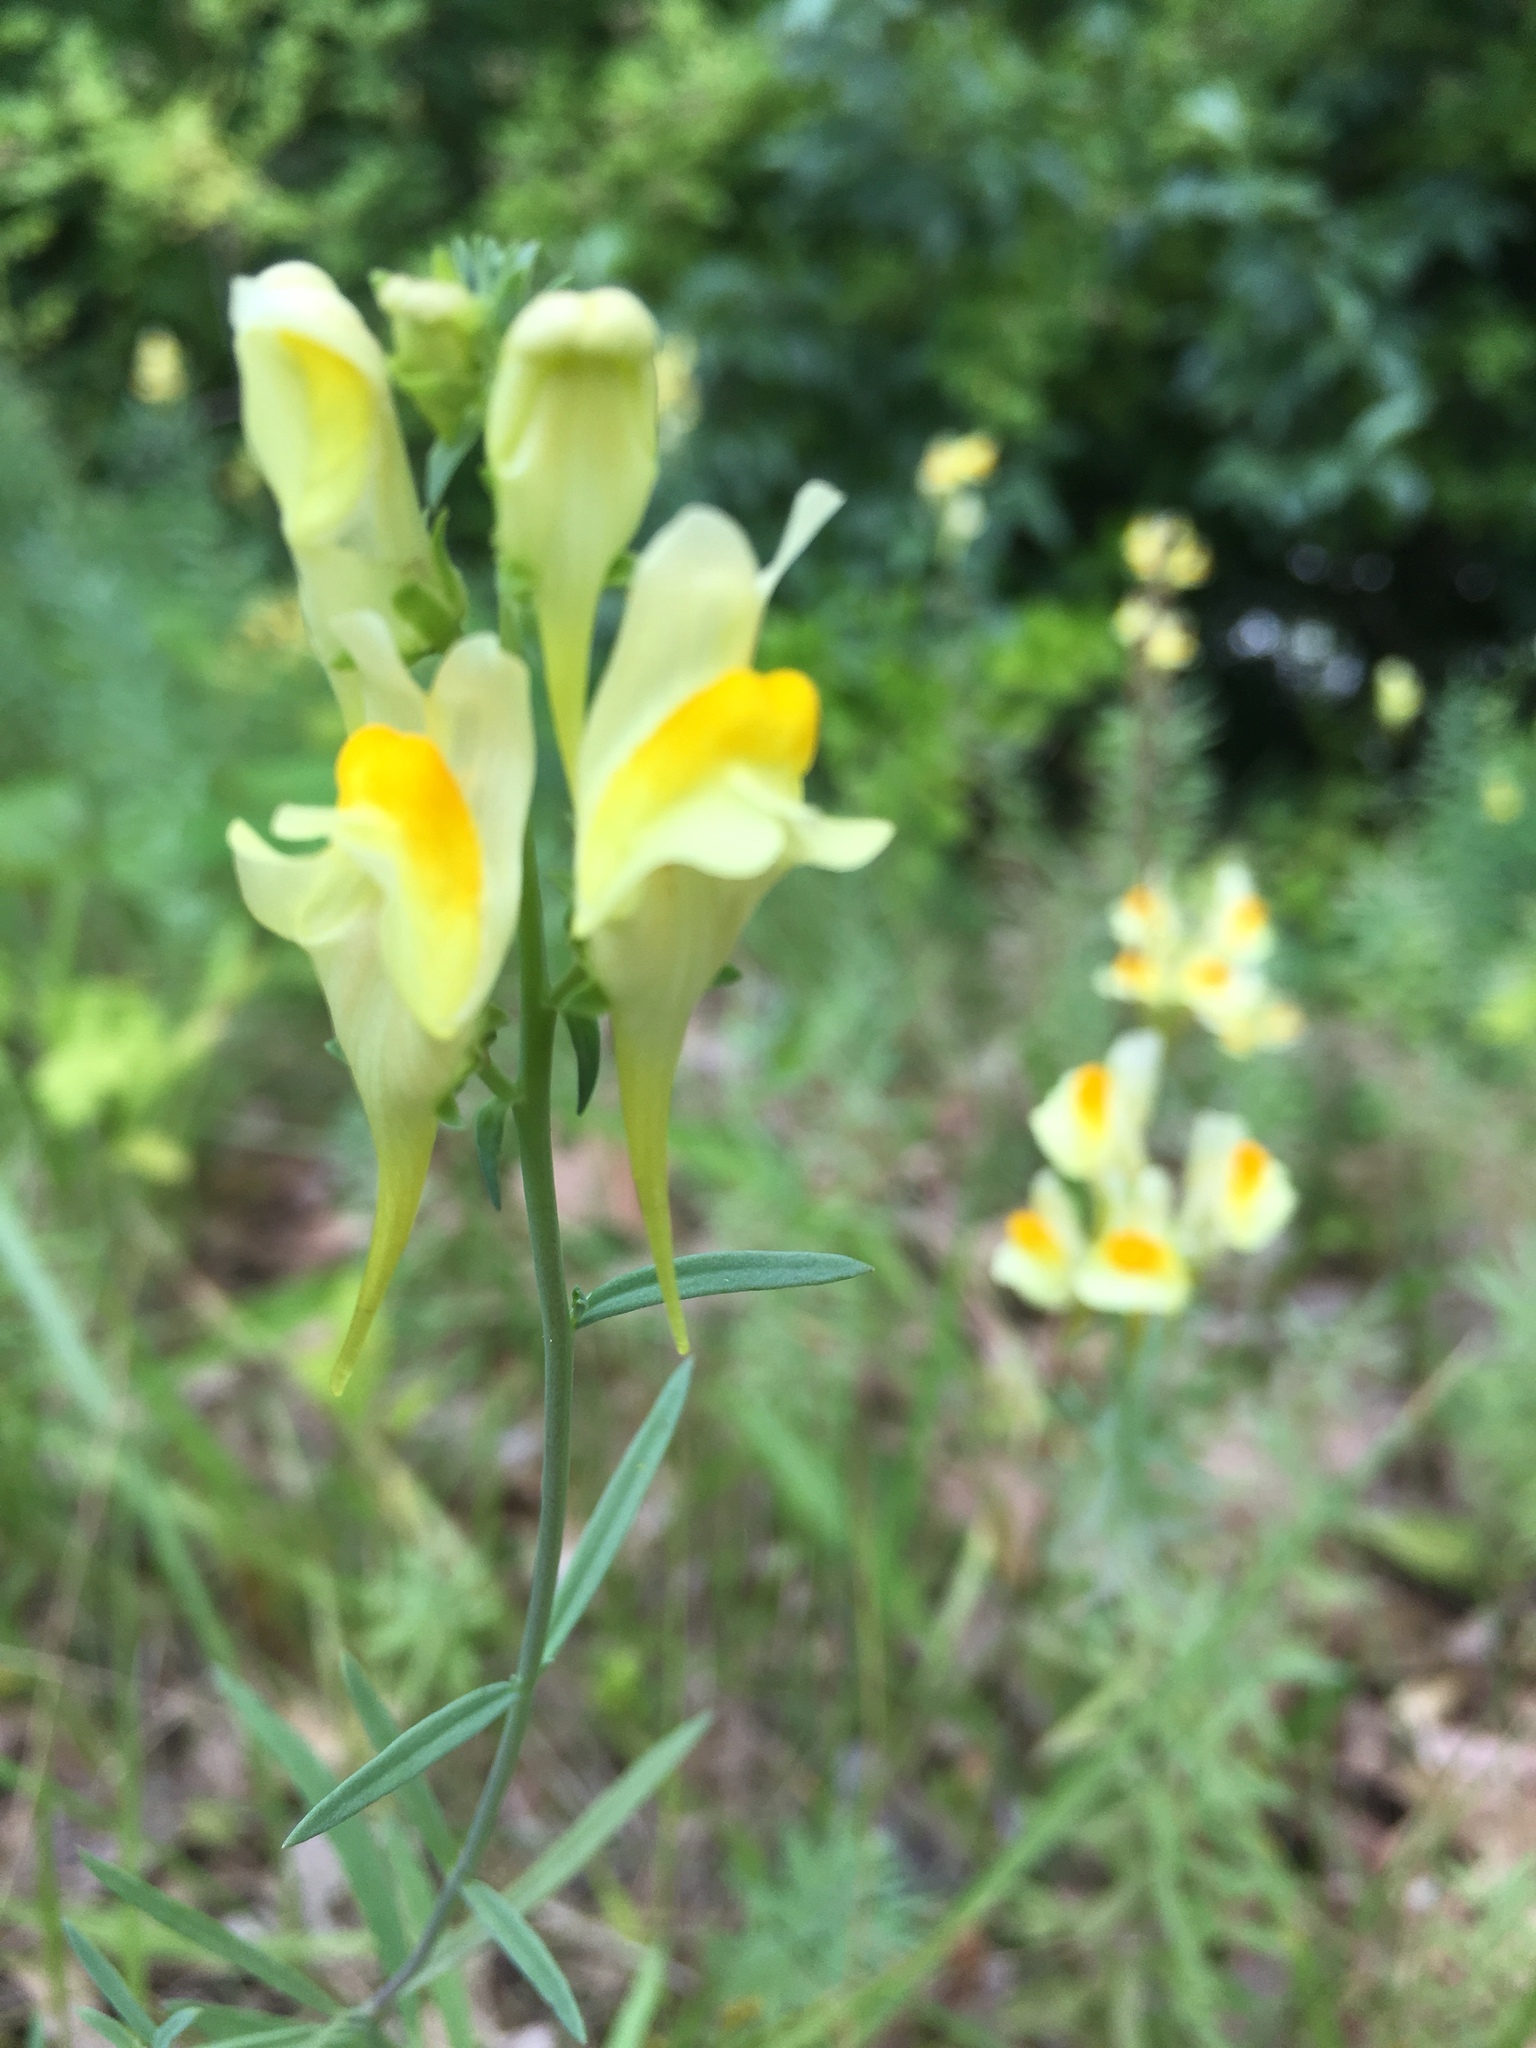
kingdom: Plantae
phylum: Tracheophyta
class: Magnoliopsida
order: Lamiales
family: Plantaginaceae
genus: Linaria
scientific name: Linaria vulgaris
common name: Butter and eggs
